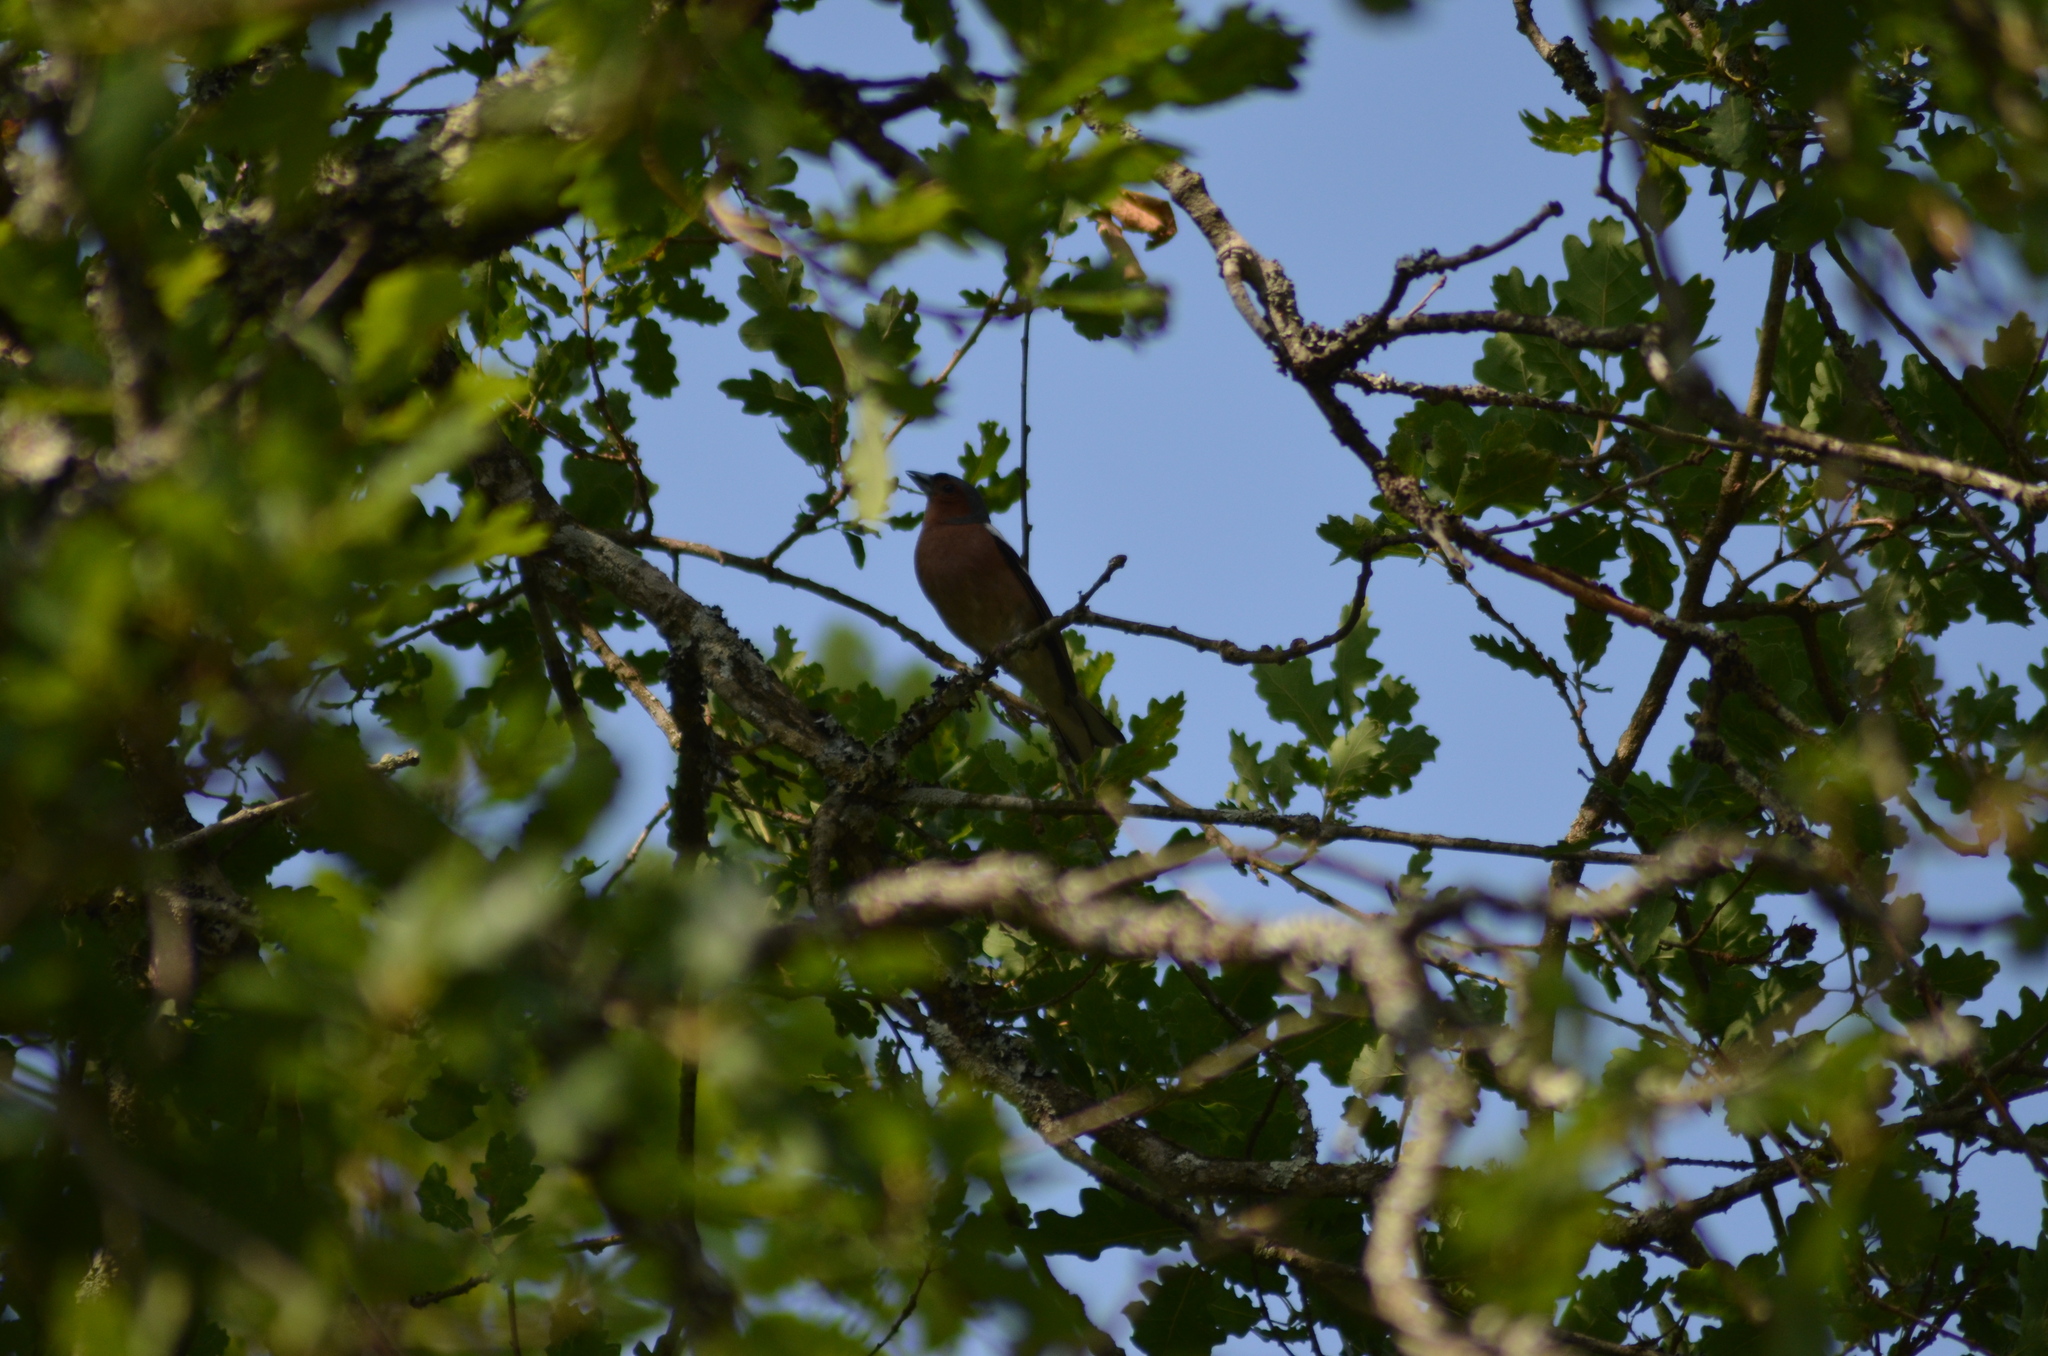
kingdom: Animalia
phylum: Chordata
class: Aves
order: Passeriformes
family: Fringillidae
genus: Fringilla
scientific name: Fringilla coelebs
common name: Common chaffinch
